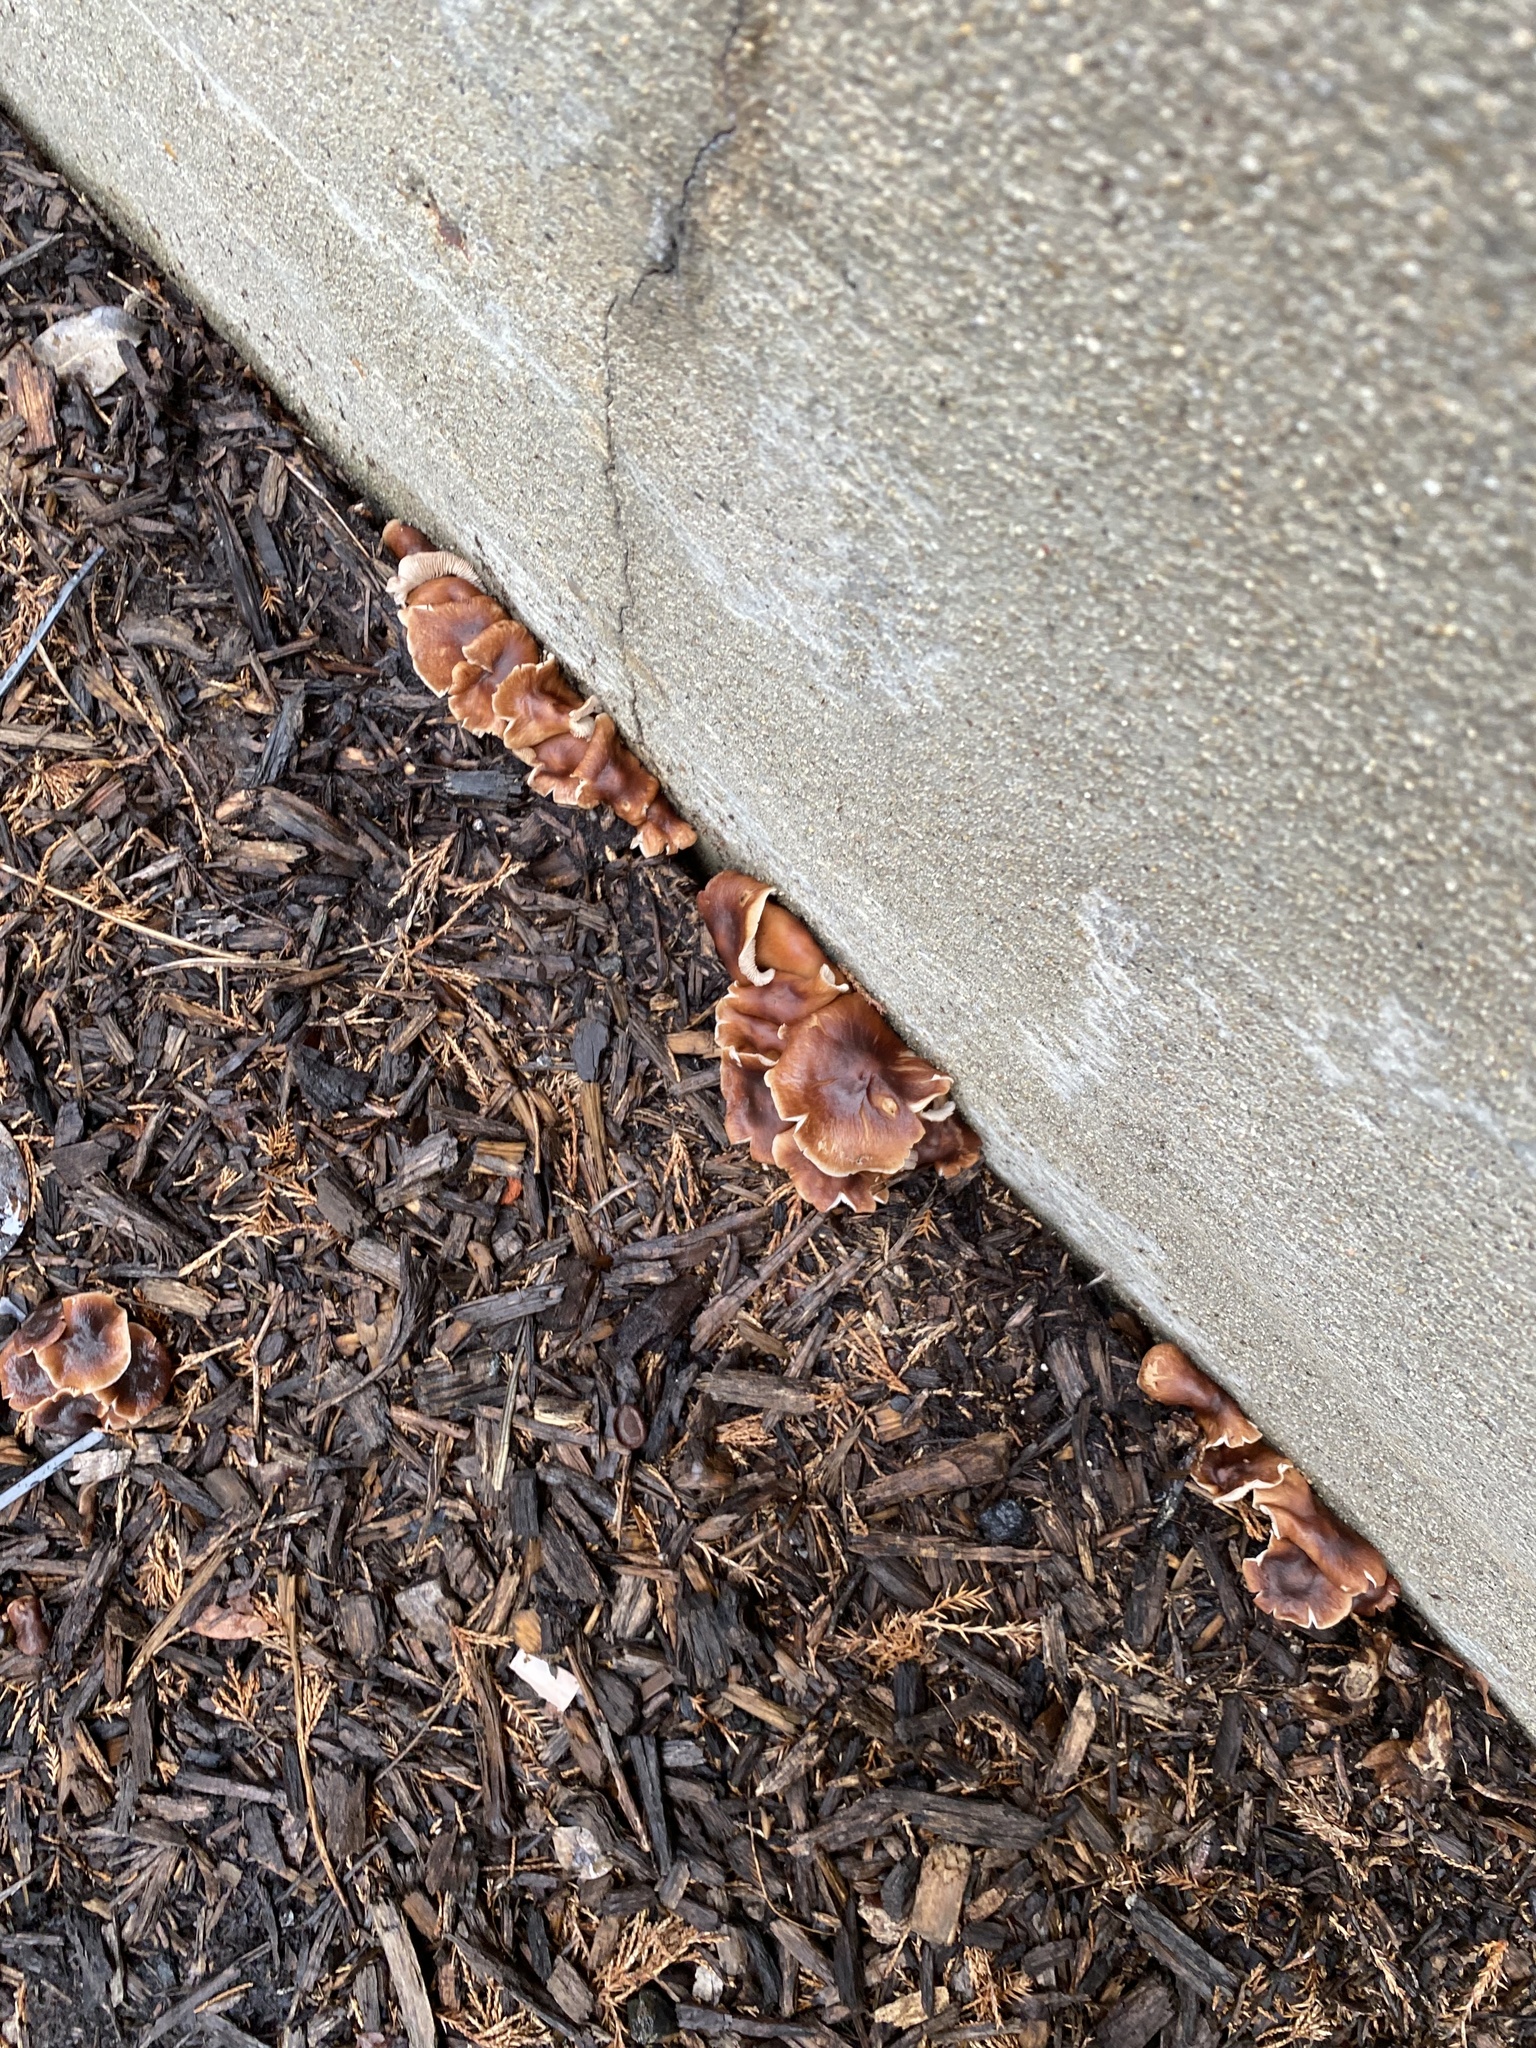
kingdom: Fungi
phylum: Basidiomycota
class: Agaricomycetes
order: Agaricales
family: Omphalotaceae
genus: Collybiopsis
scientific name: Collybiopsis luxurians
